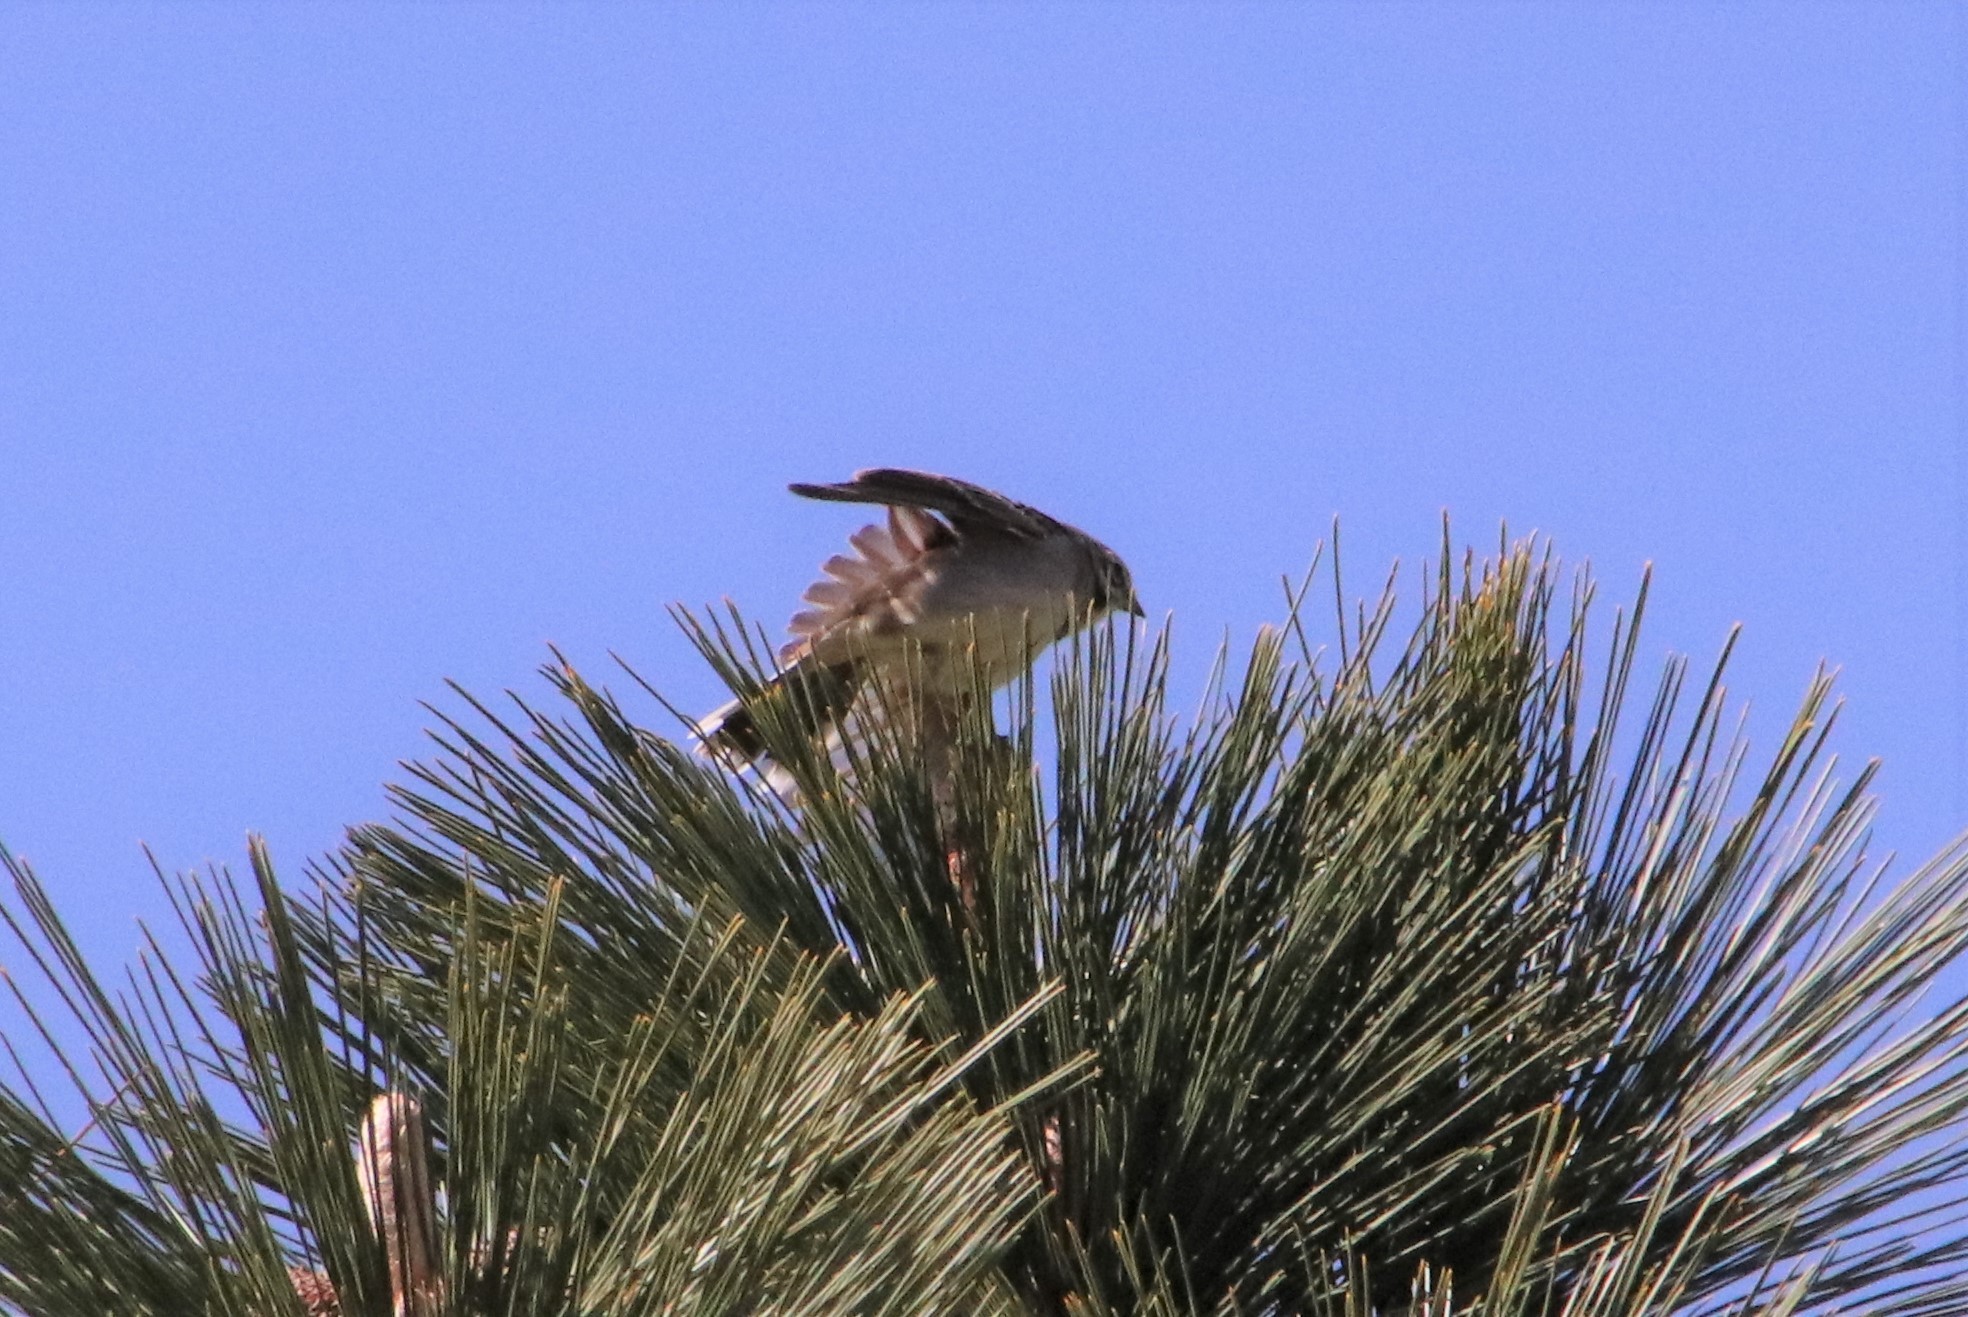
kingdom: Animalia
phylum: Chordata
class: Aves
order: Passeriformes
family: Passerellidae
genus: Chondestes
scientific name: Chondestes grammacus
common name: Lark sparrow
